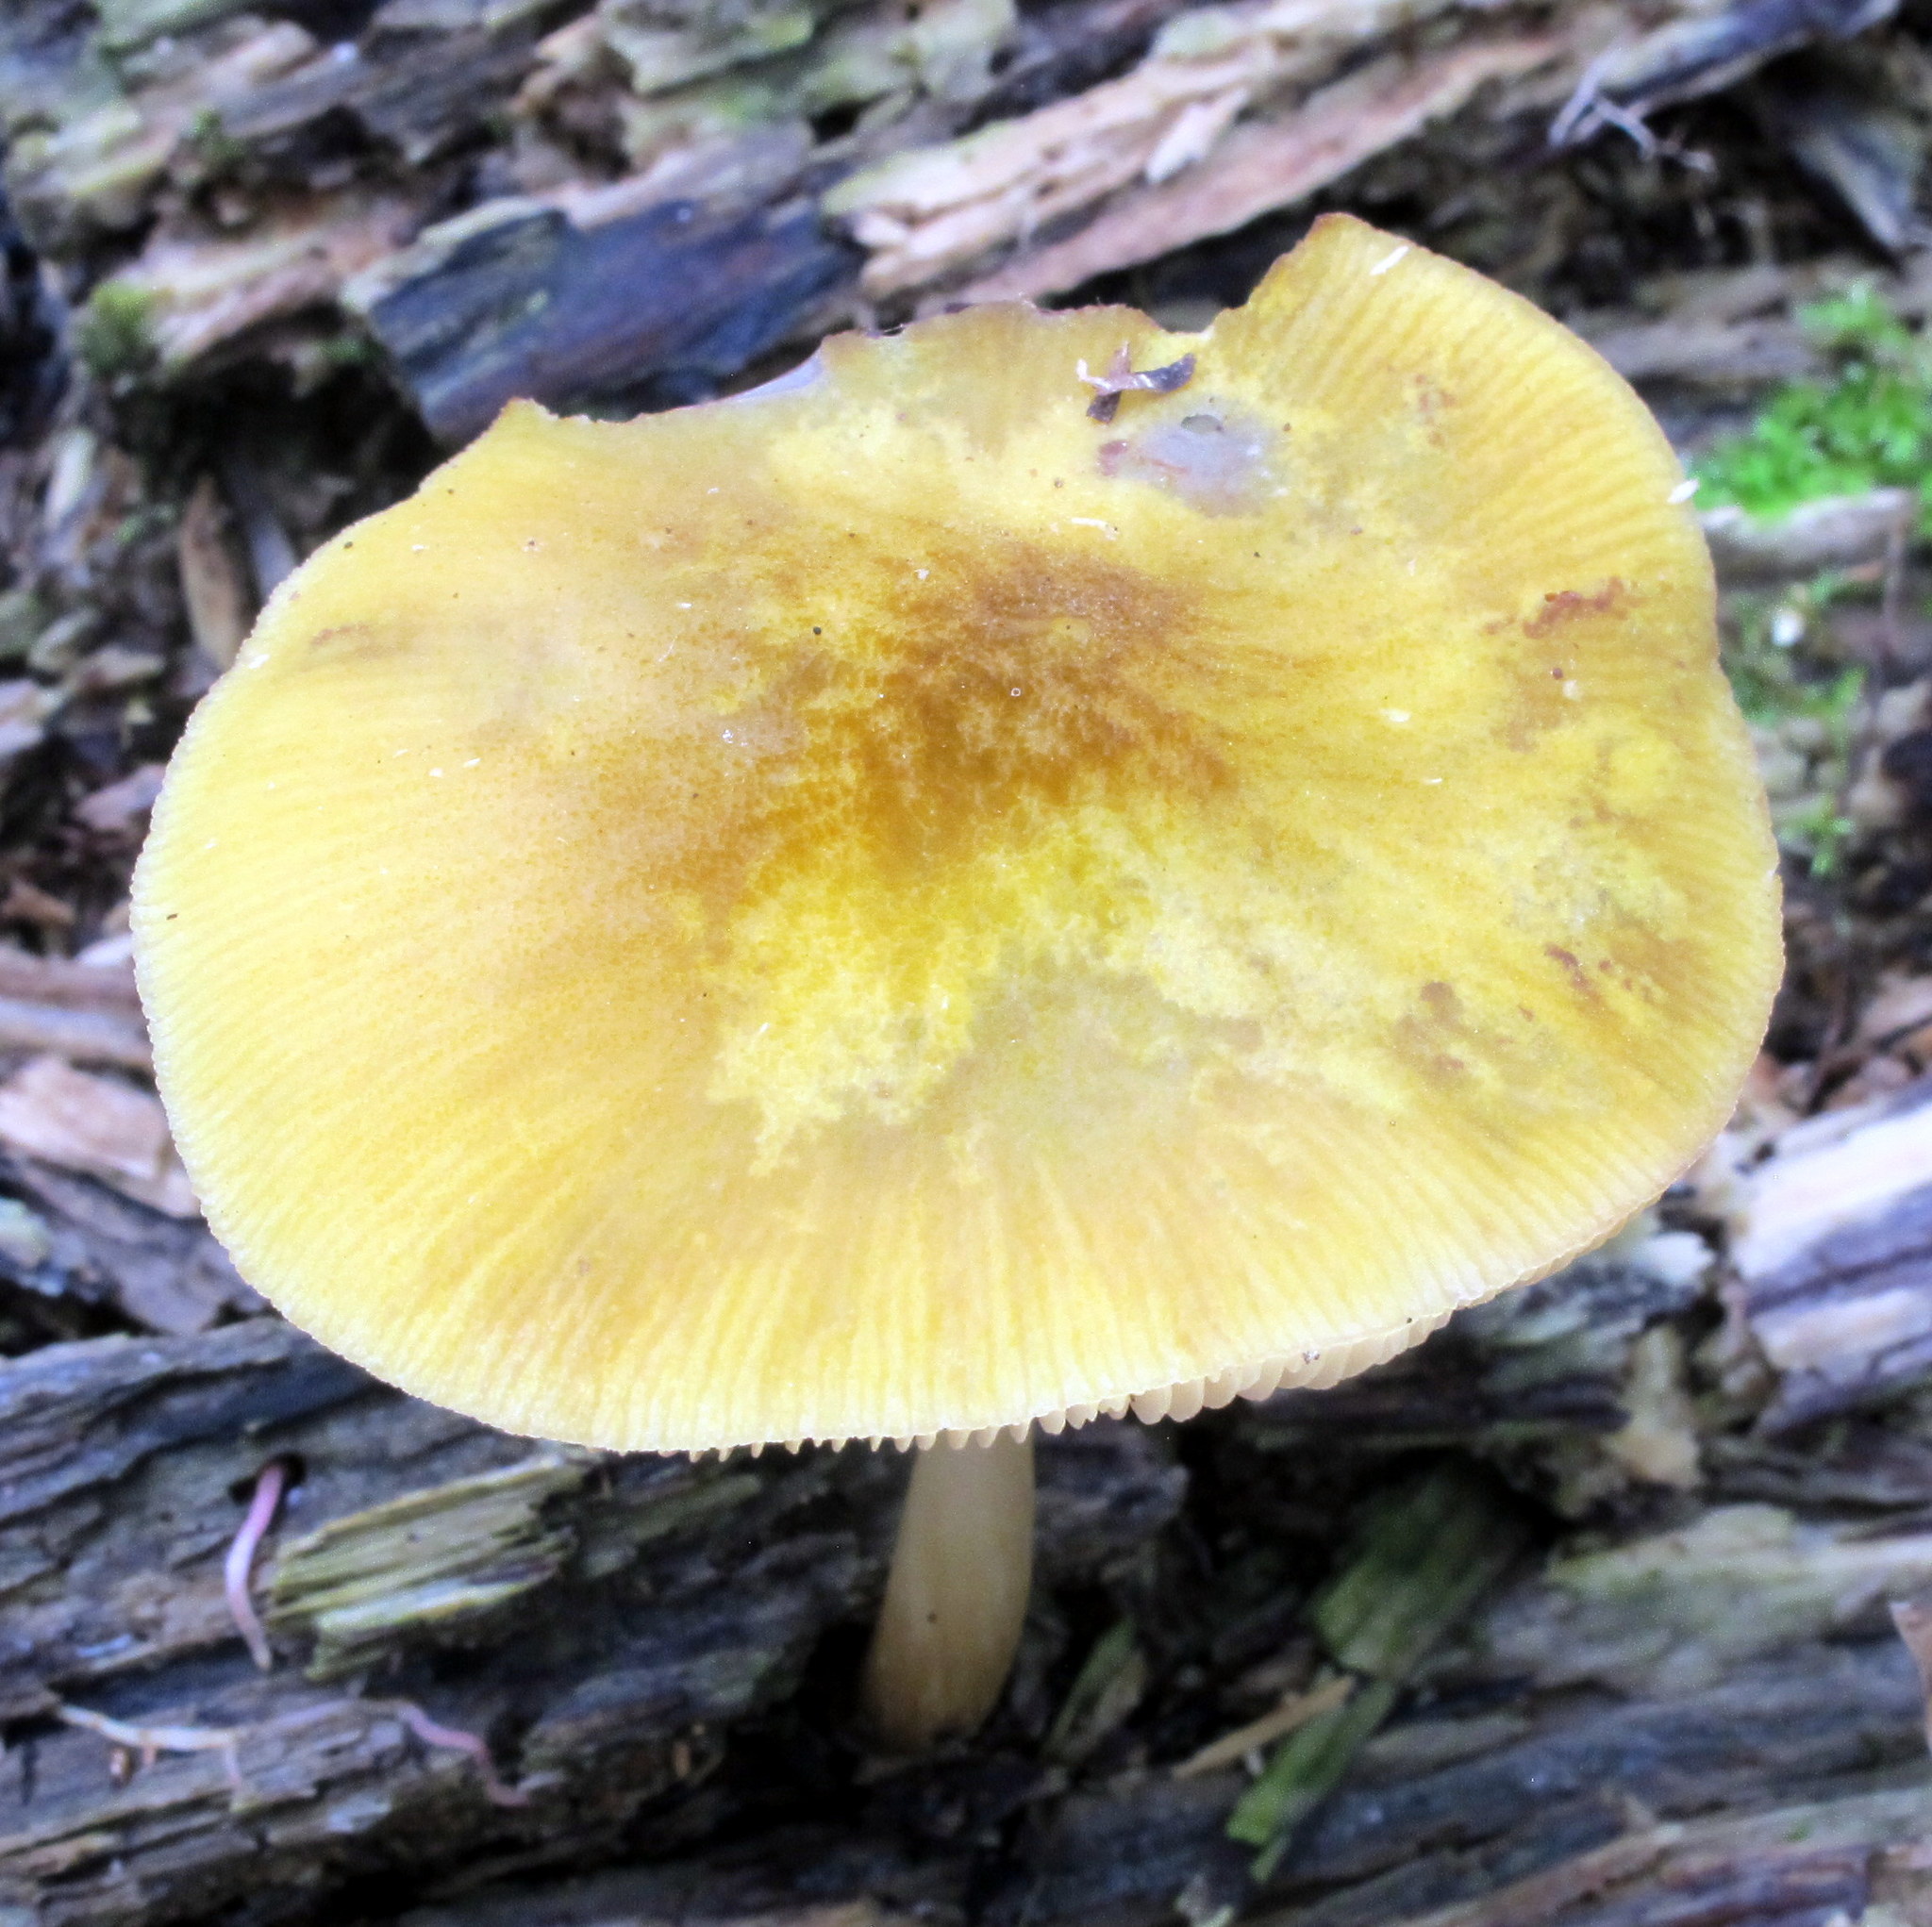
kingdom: Fungi
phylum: Basidiomycota
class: Agaricomycetes
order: Agaricales
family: Pluteaceae
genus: Pluteus
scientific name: Pluteus flavofuligineus
